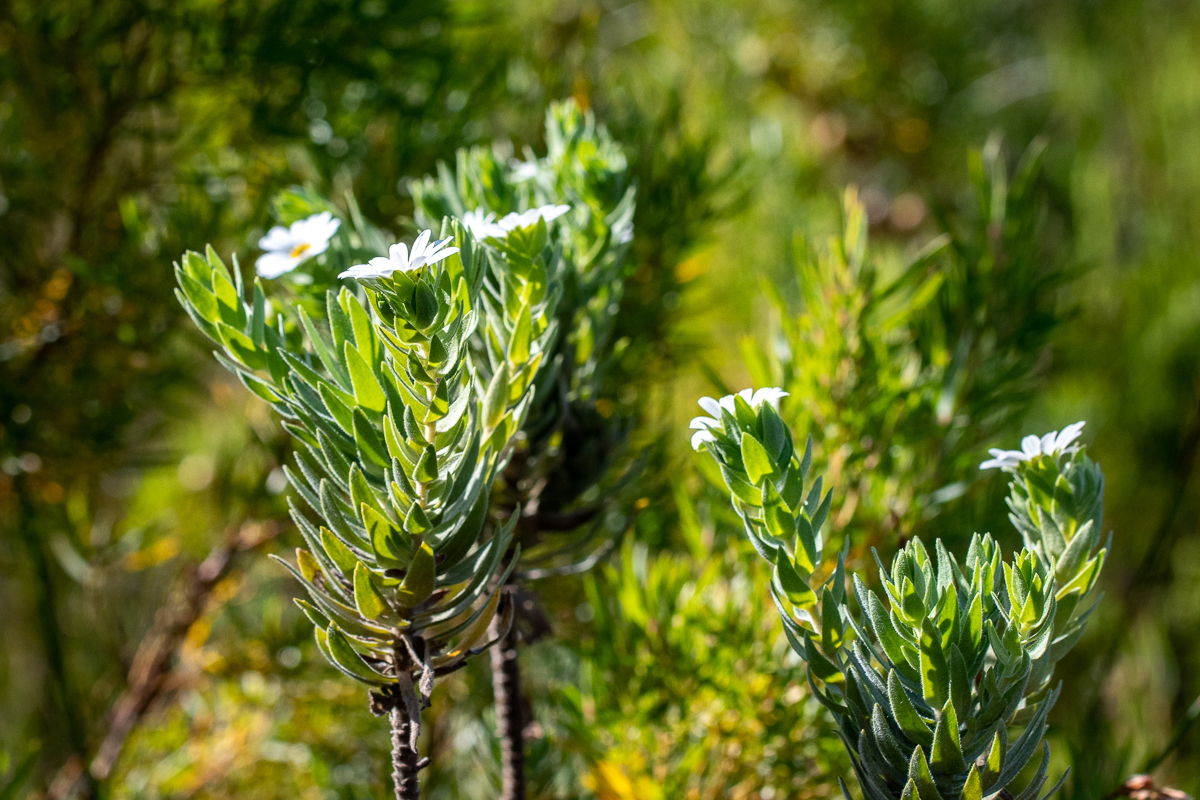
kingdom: Plantae
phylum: Tracheophyta
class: Magnoliopsida
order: Asterales
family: Asteraceae
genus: Osmitopsis
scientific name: Osmitopsis asteriscoides
